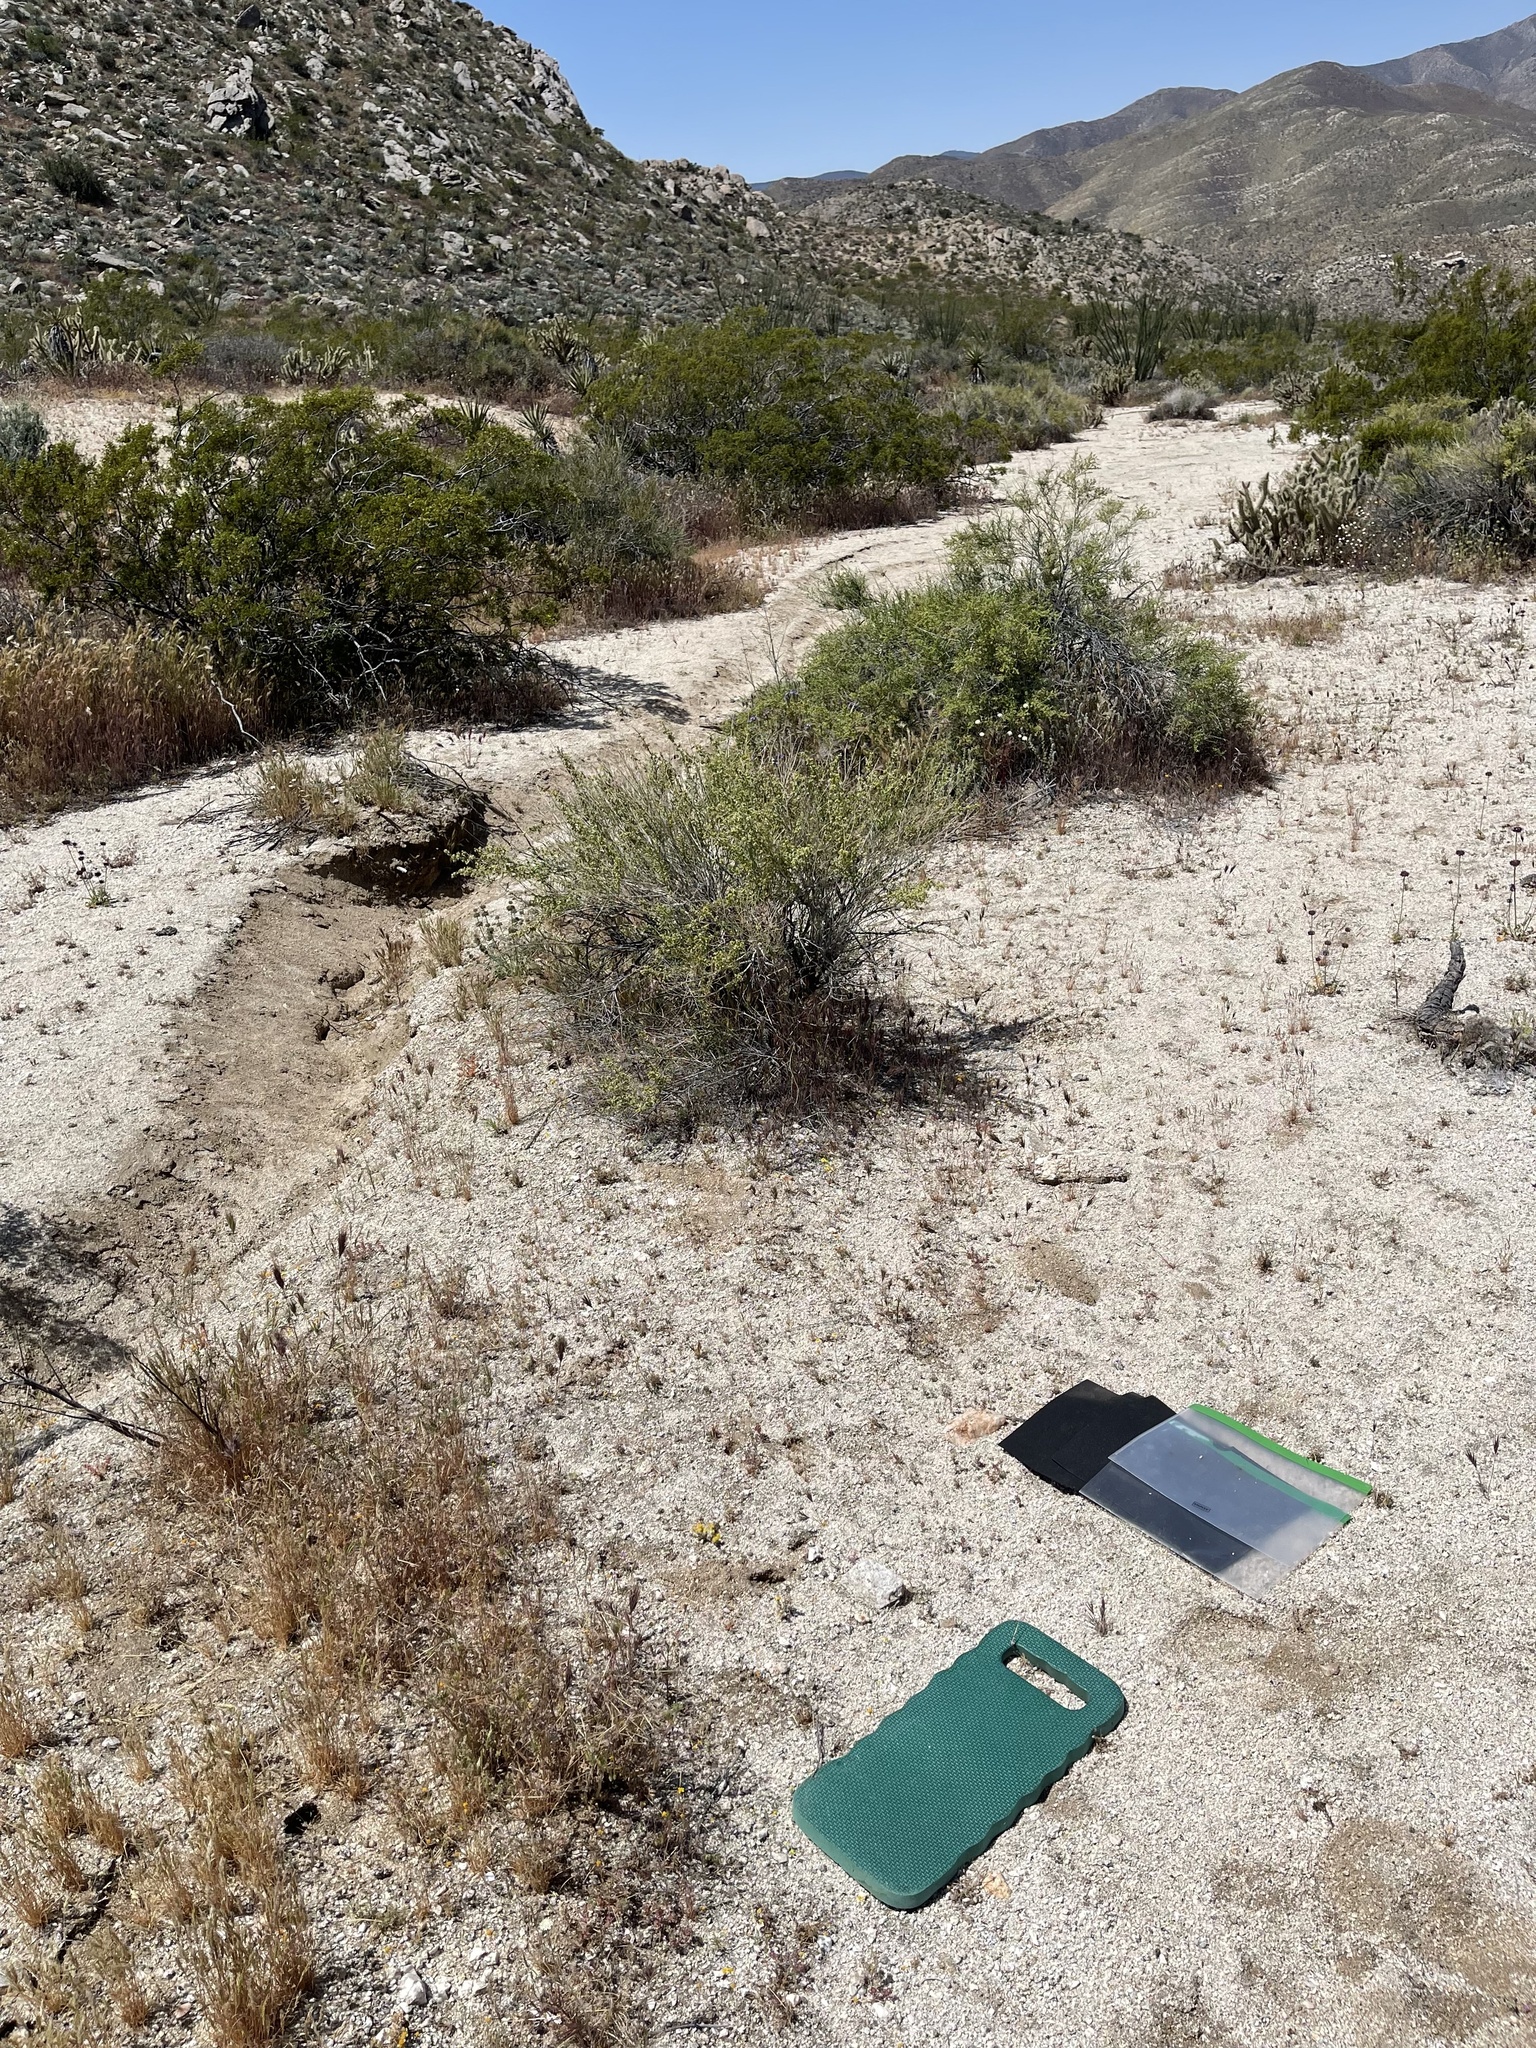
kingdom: Plantae
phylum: Tracheophyta
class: Magnoliopsida
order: Asterales
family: Asteraceae
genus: Eriophyllum
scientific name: Eriophyllum pringlei
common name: Pringle's woolly-sunflower
